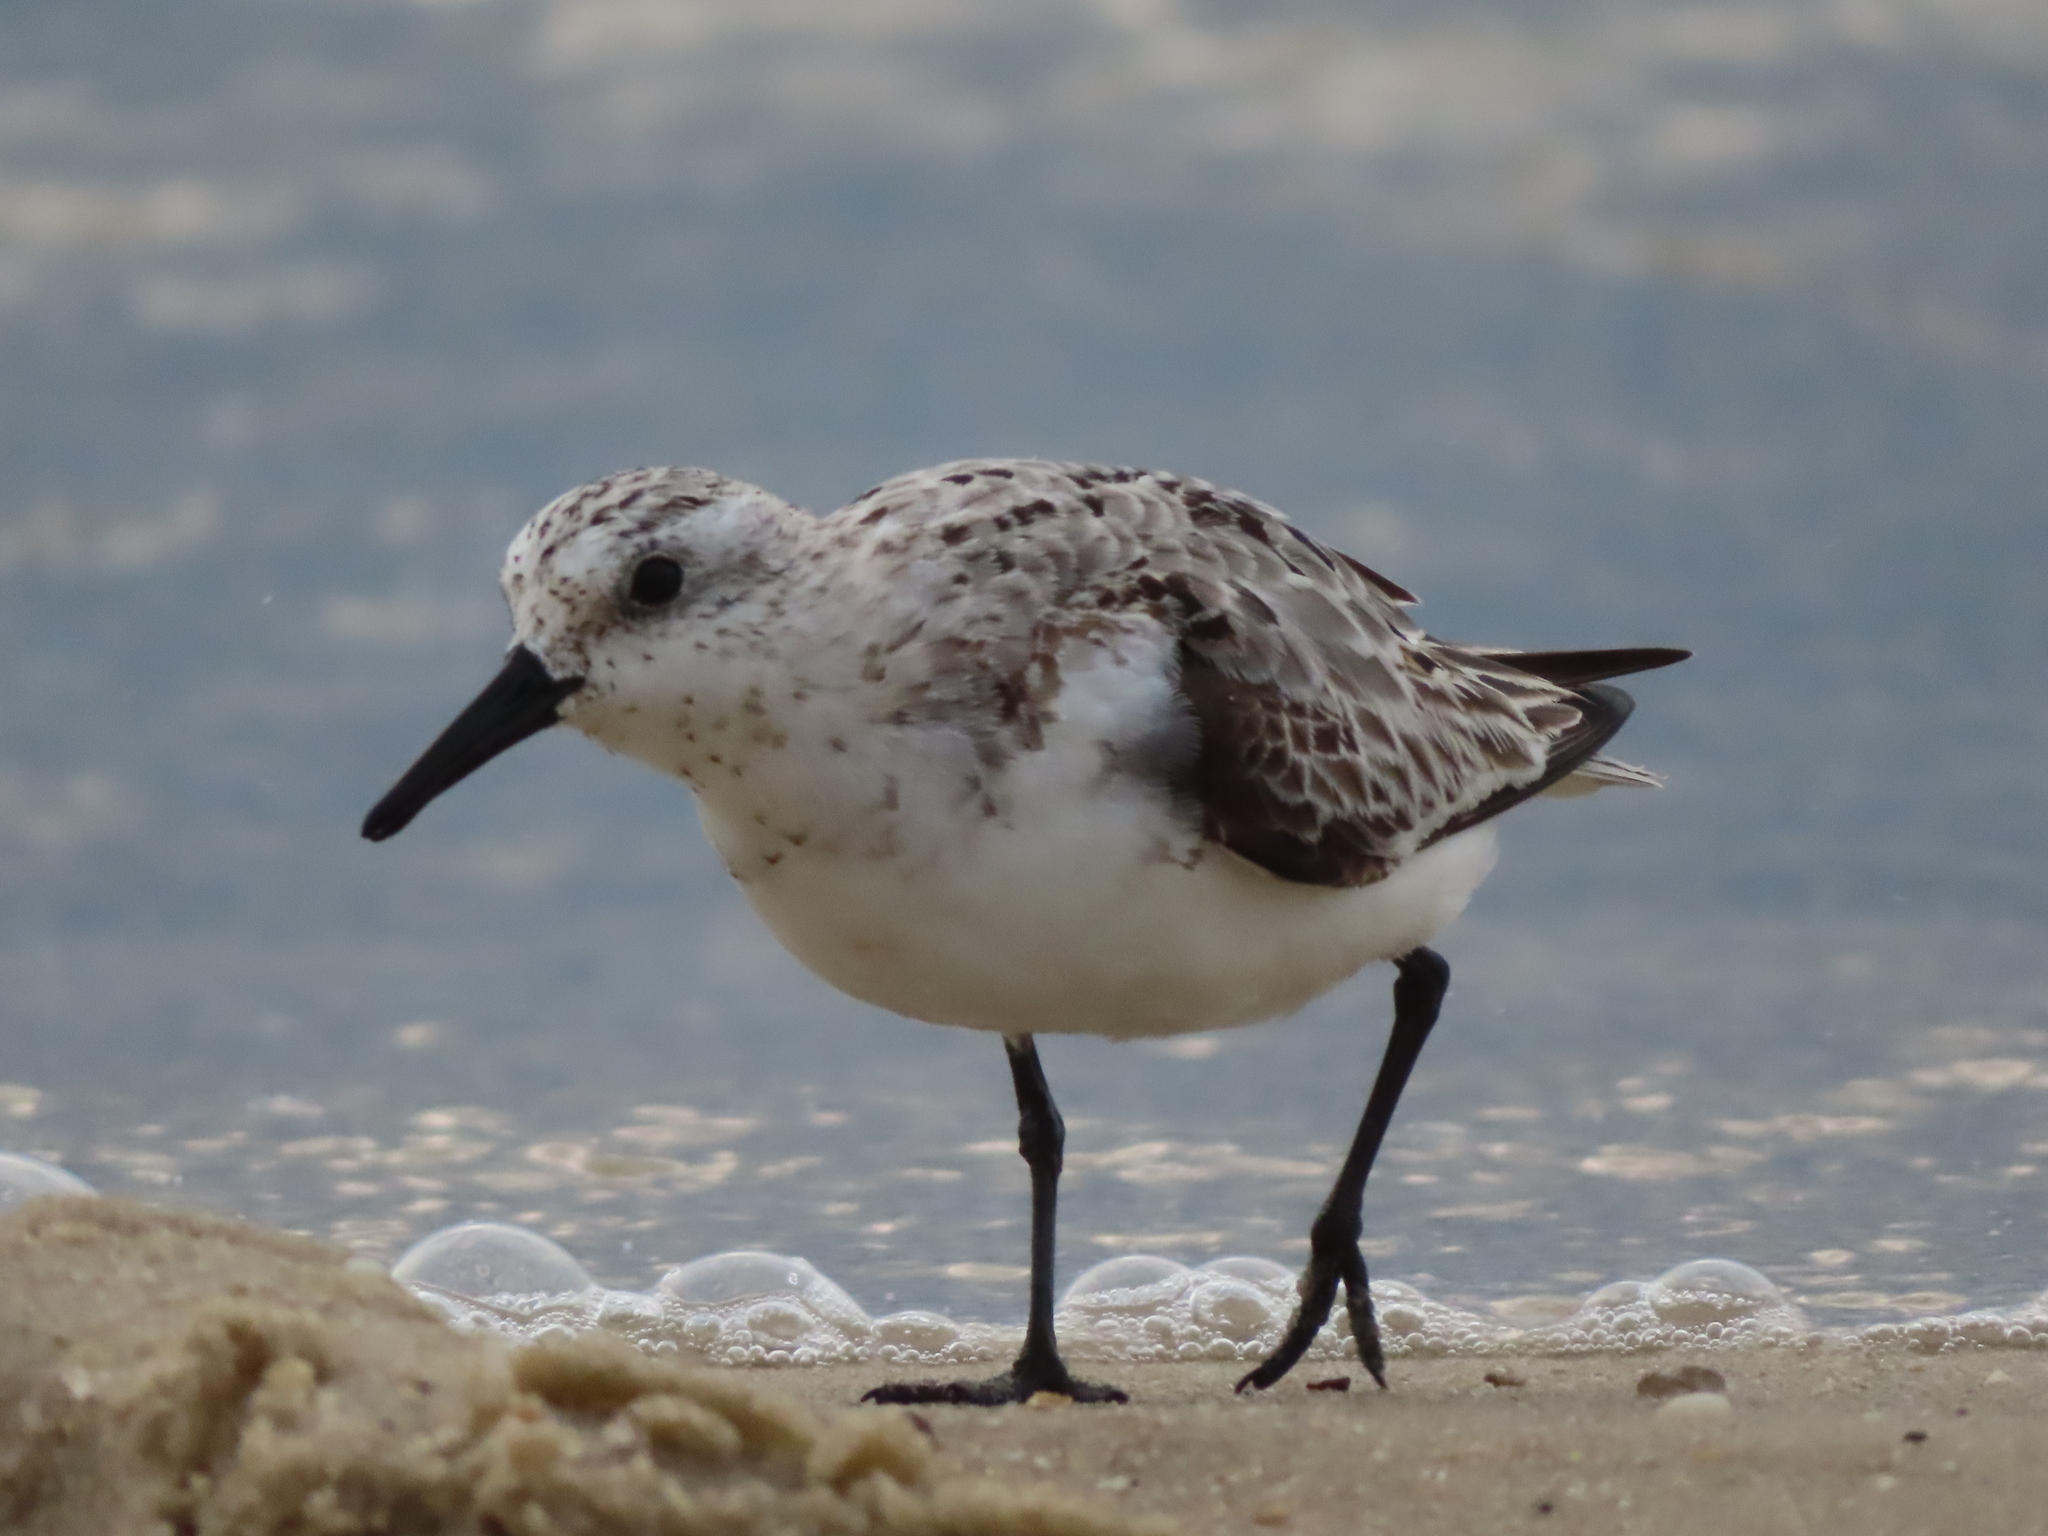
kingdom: Animalia
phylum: Chordata
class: Aves
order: Charadriiformes
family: Scolopacidae
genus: Calidris
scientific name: Calidris alba
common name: Sanderling
